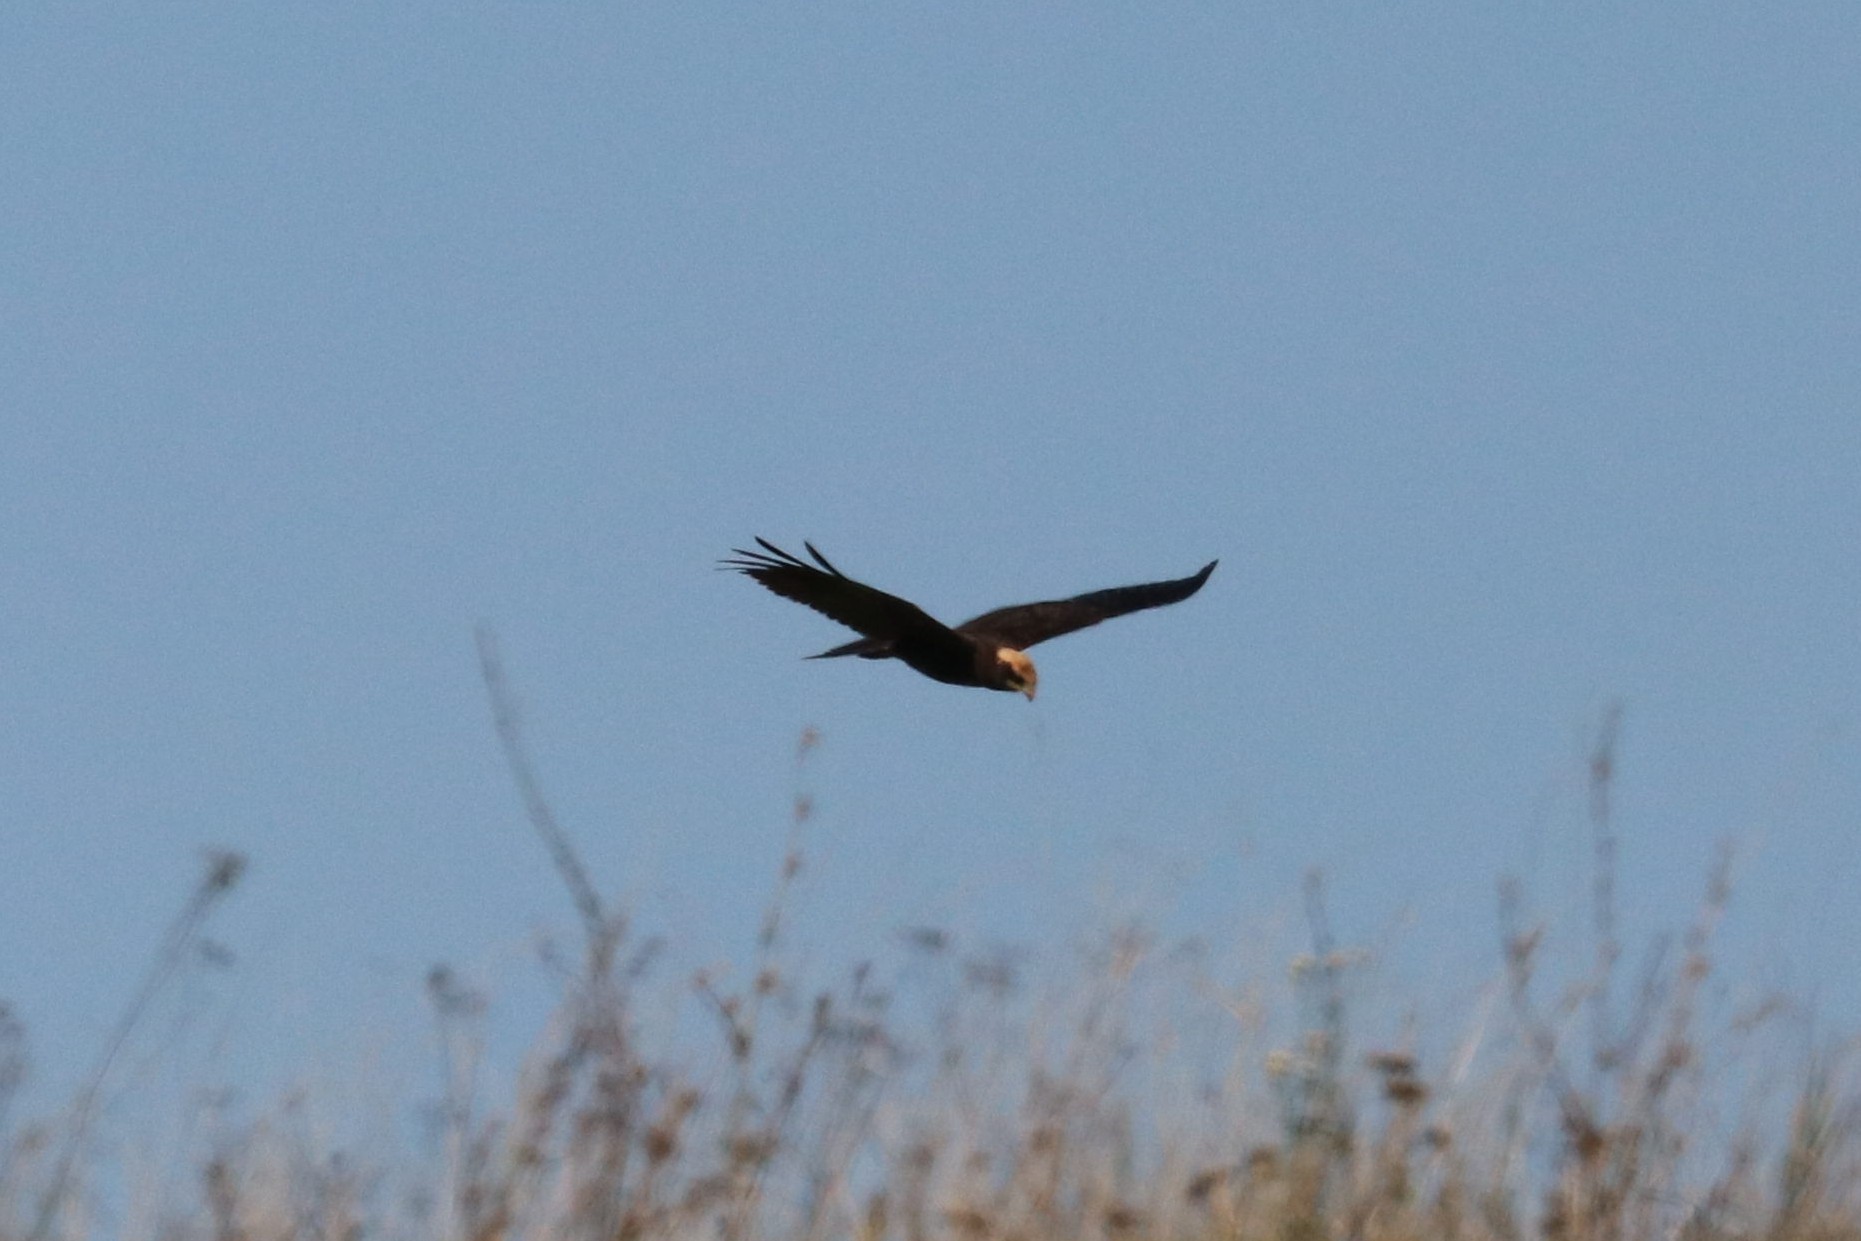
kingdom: Animalia
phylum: Chordata
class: Aves
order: Accipitriformes
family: Accipitridae
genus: Circus
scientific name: Circus aeruginosus
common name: Western marsh harrier
